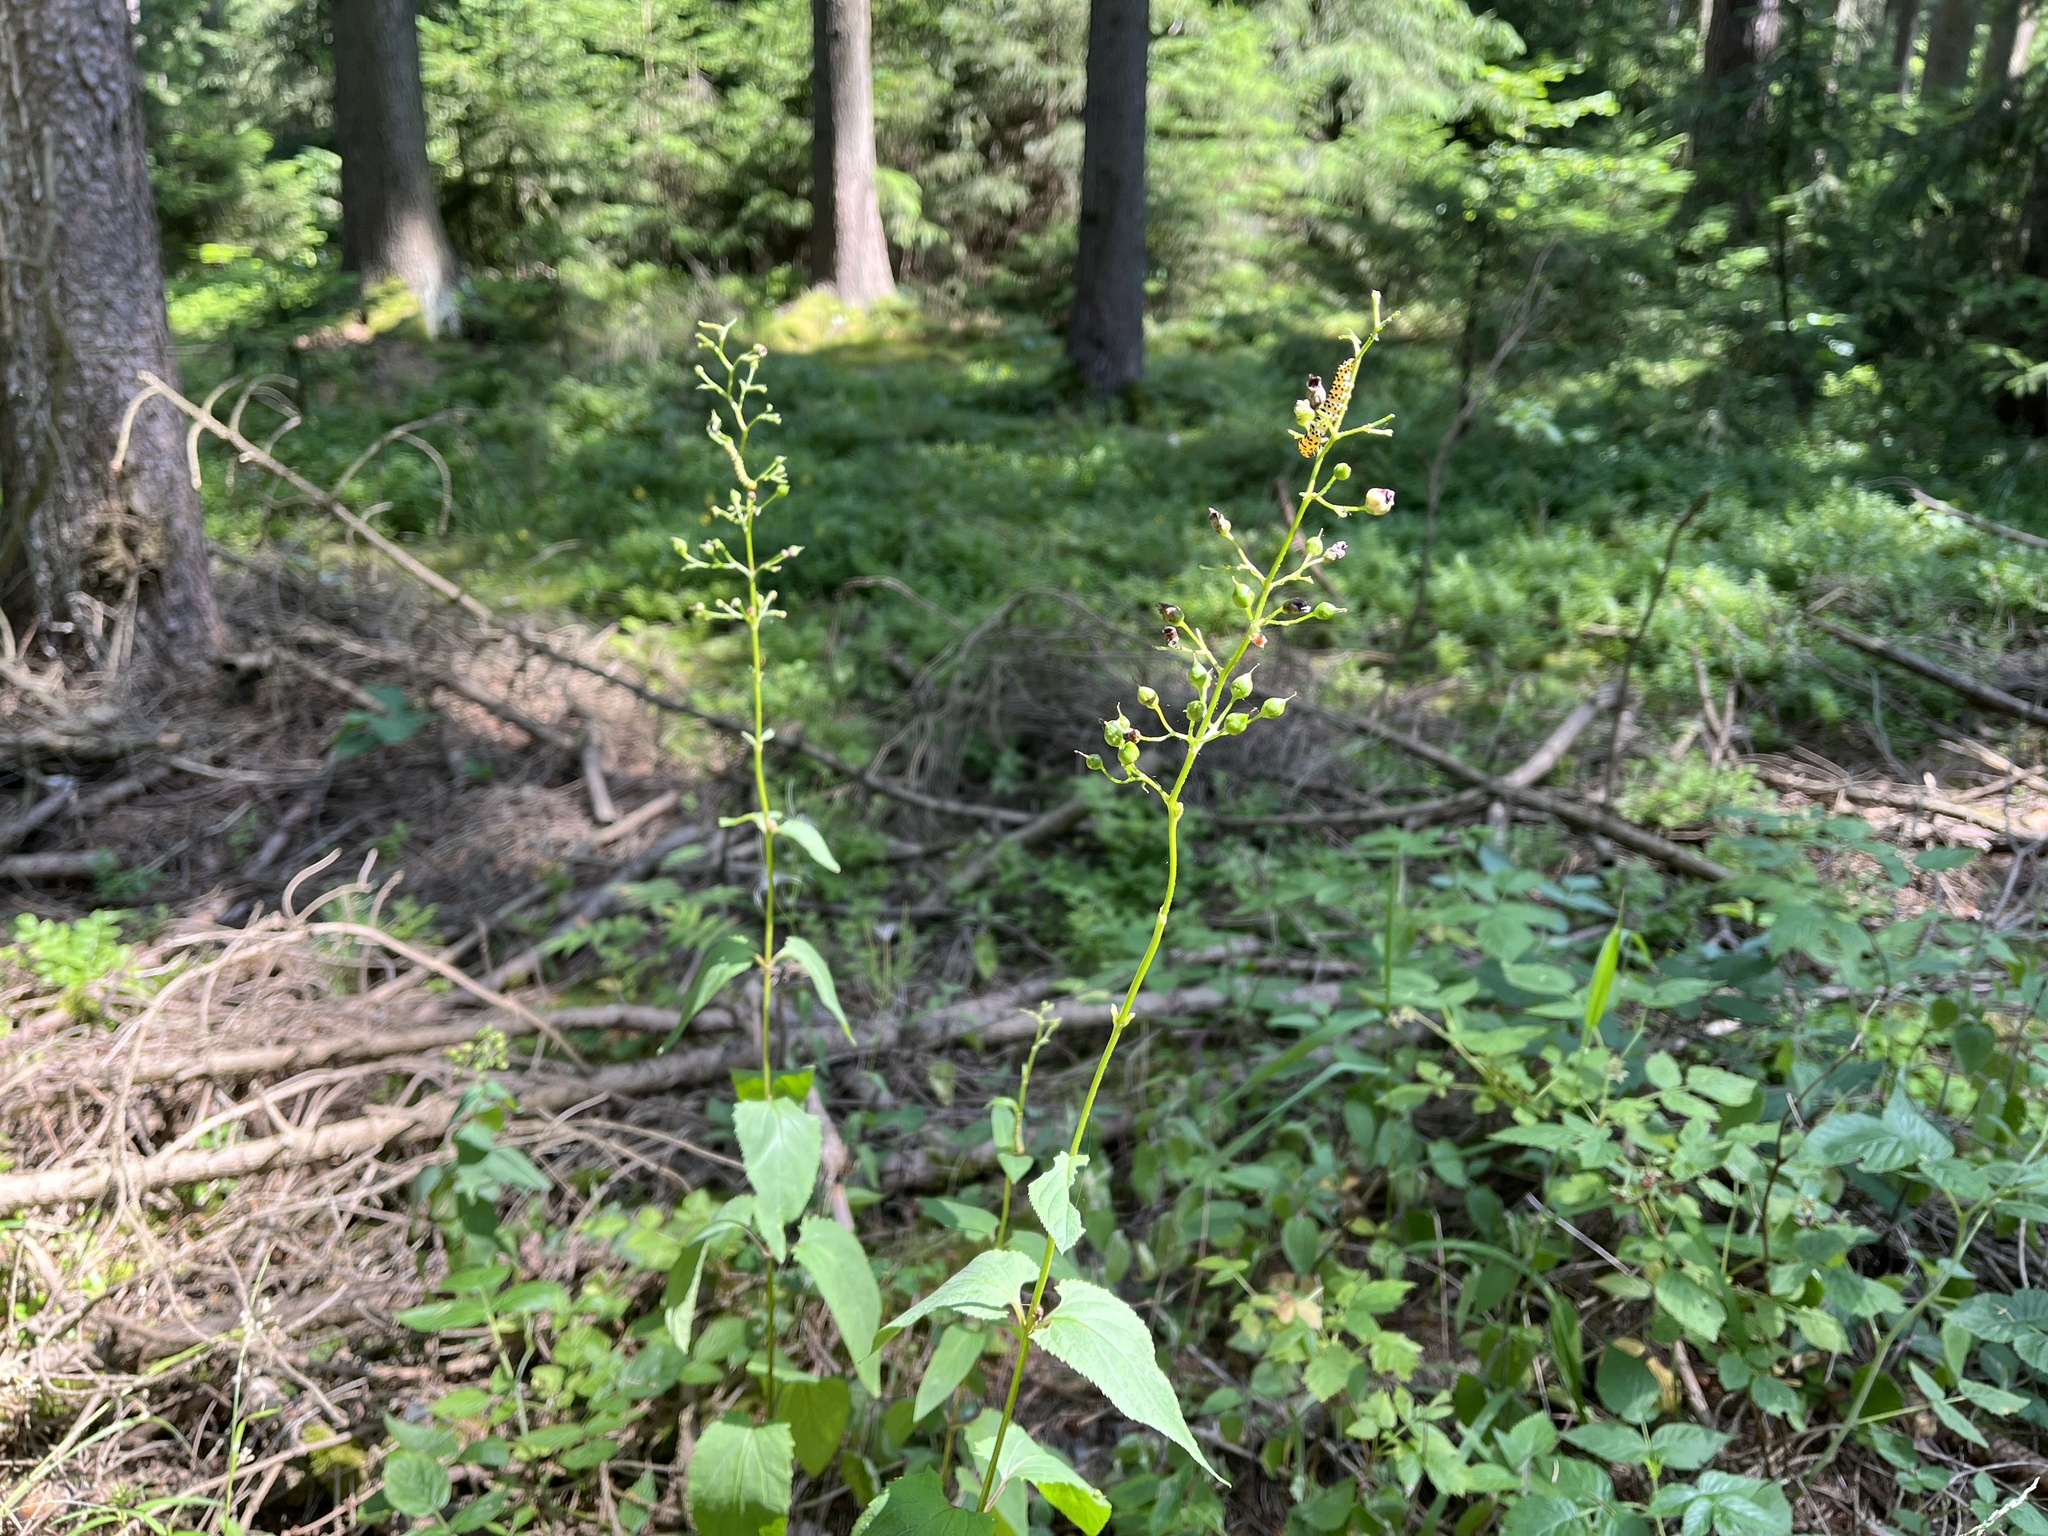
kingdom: Plantae
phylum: Tracheophyta
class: Magnoliopsida
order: Lamiales
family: Scrophulariaceae
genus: Scrophularia
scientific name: Scrophularia nodosa
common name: Common figwort
